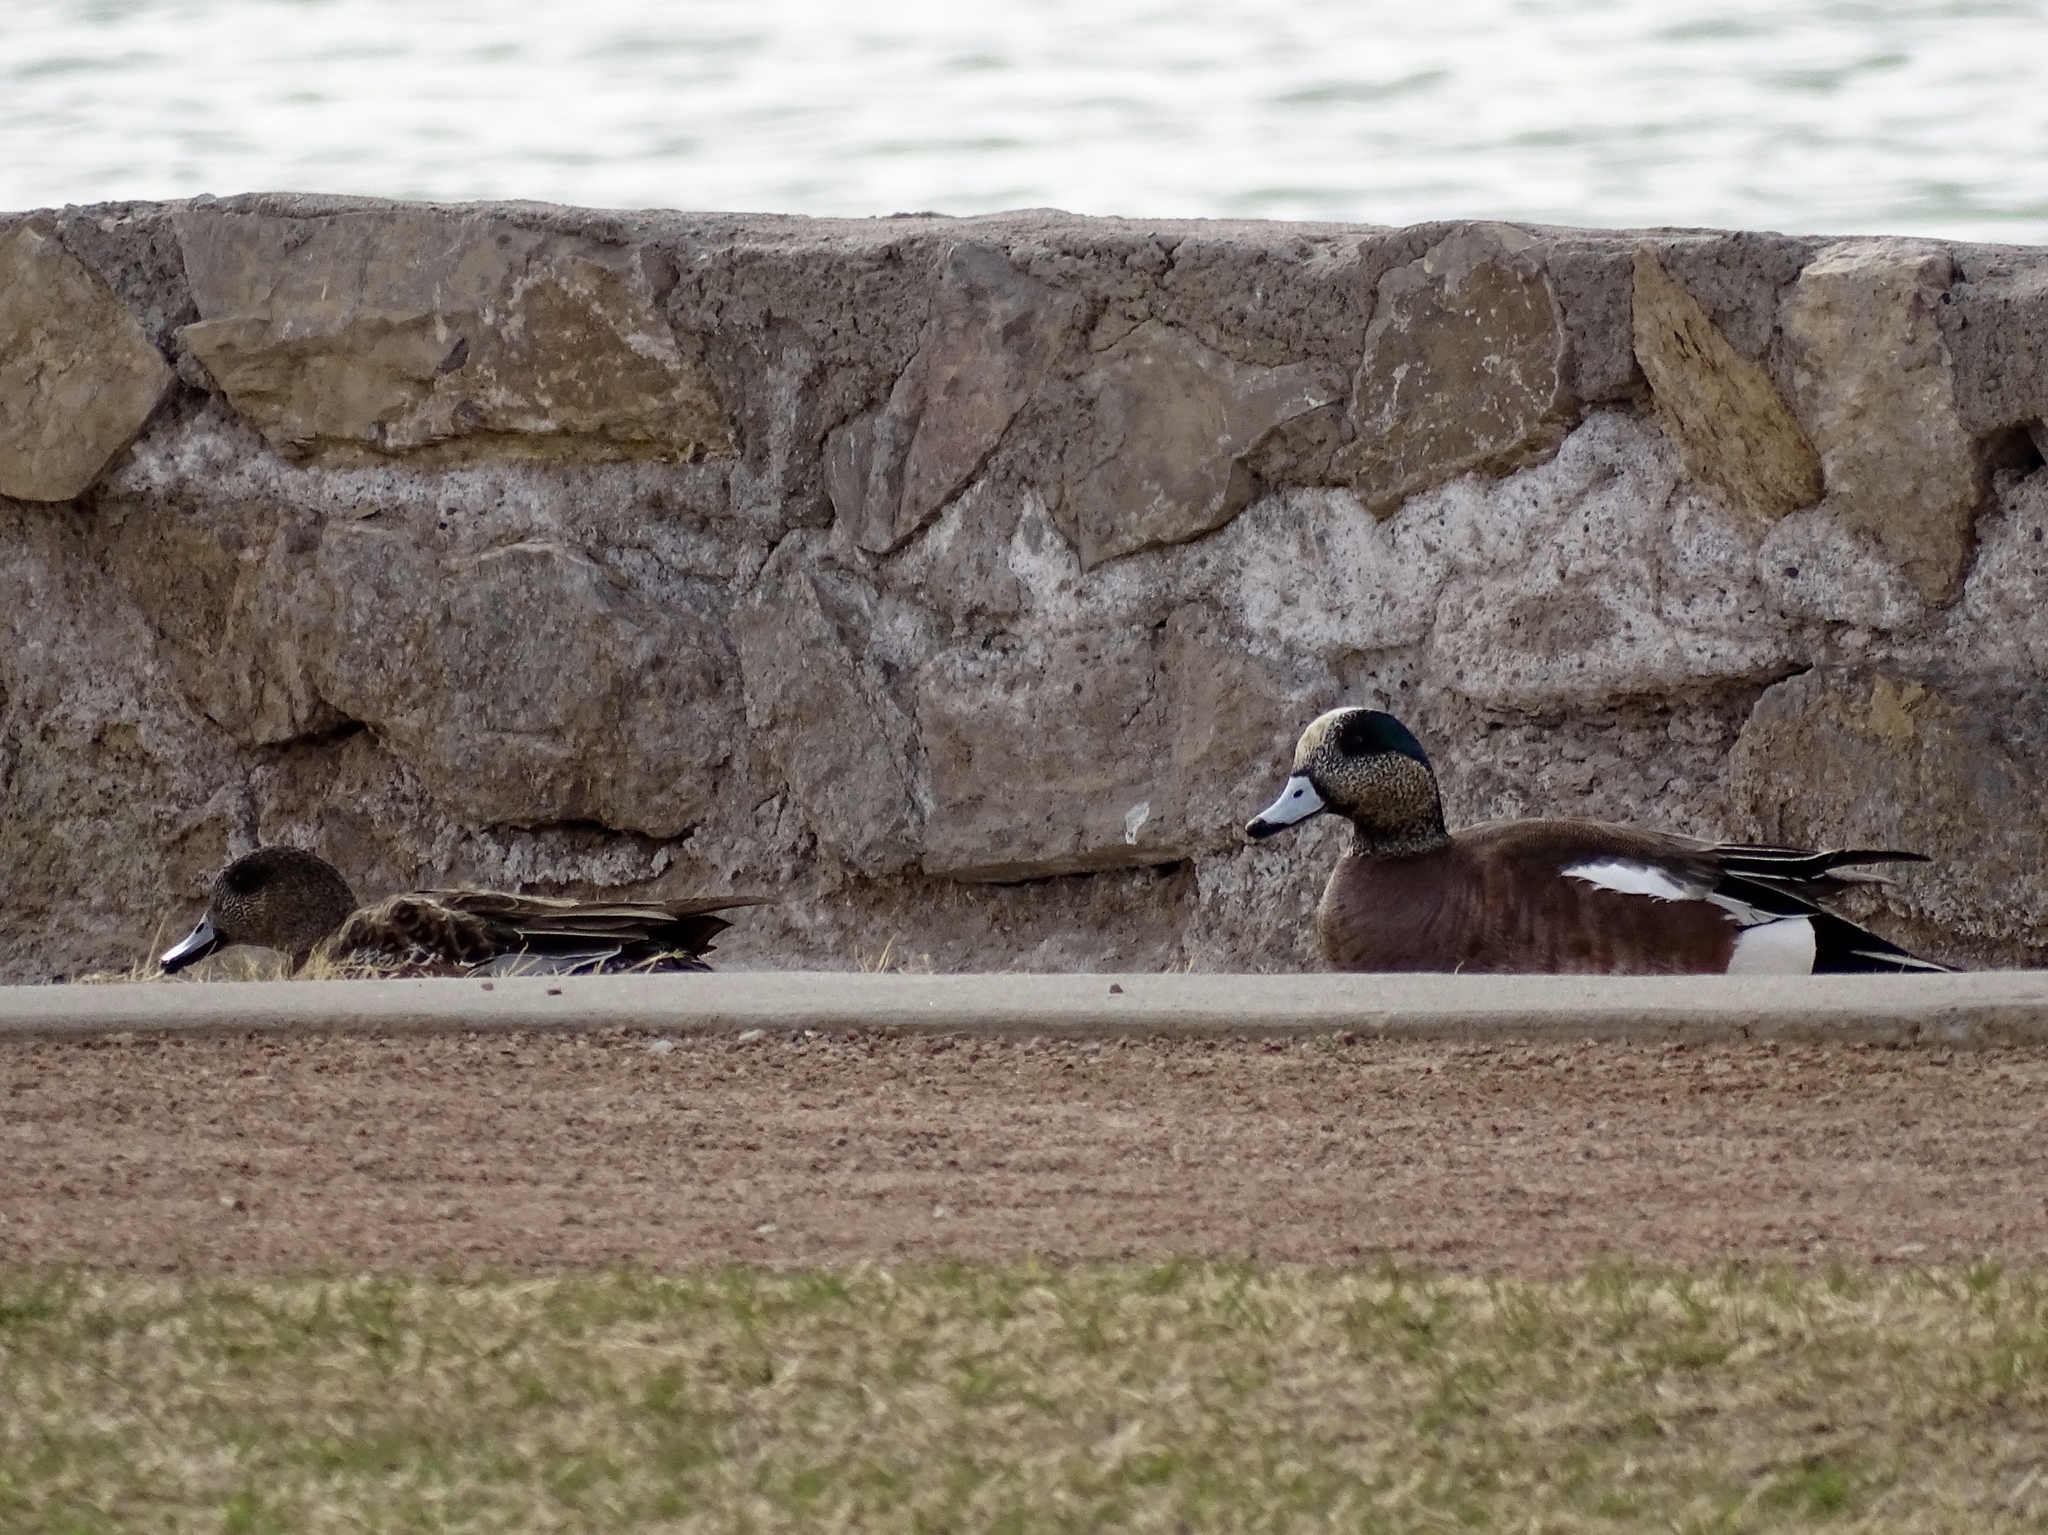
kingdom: Animalia
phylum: Chordata
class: Aves
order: Anseriformes
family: Anatidae
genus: Mareca
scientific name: Mareca americana
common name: American wigeon
